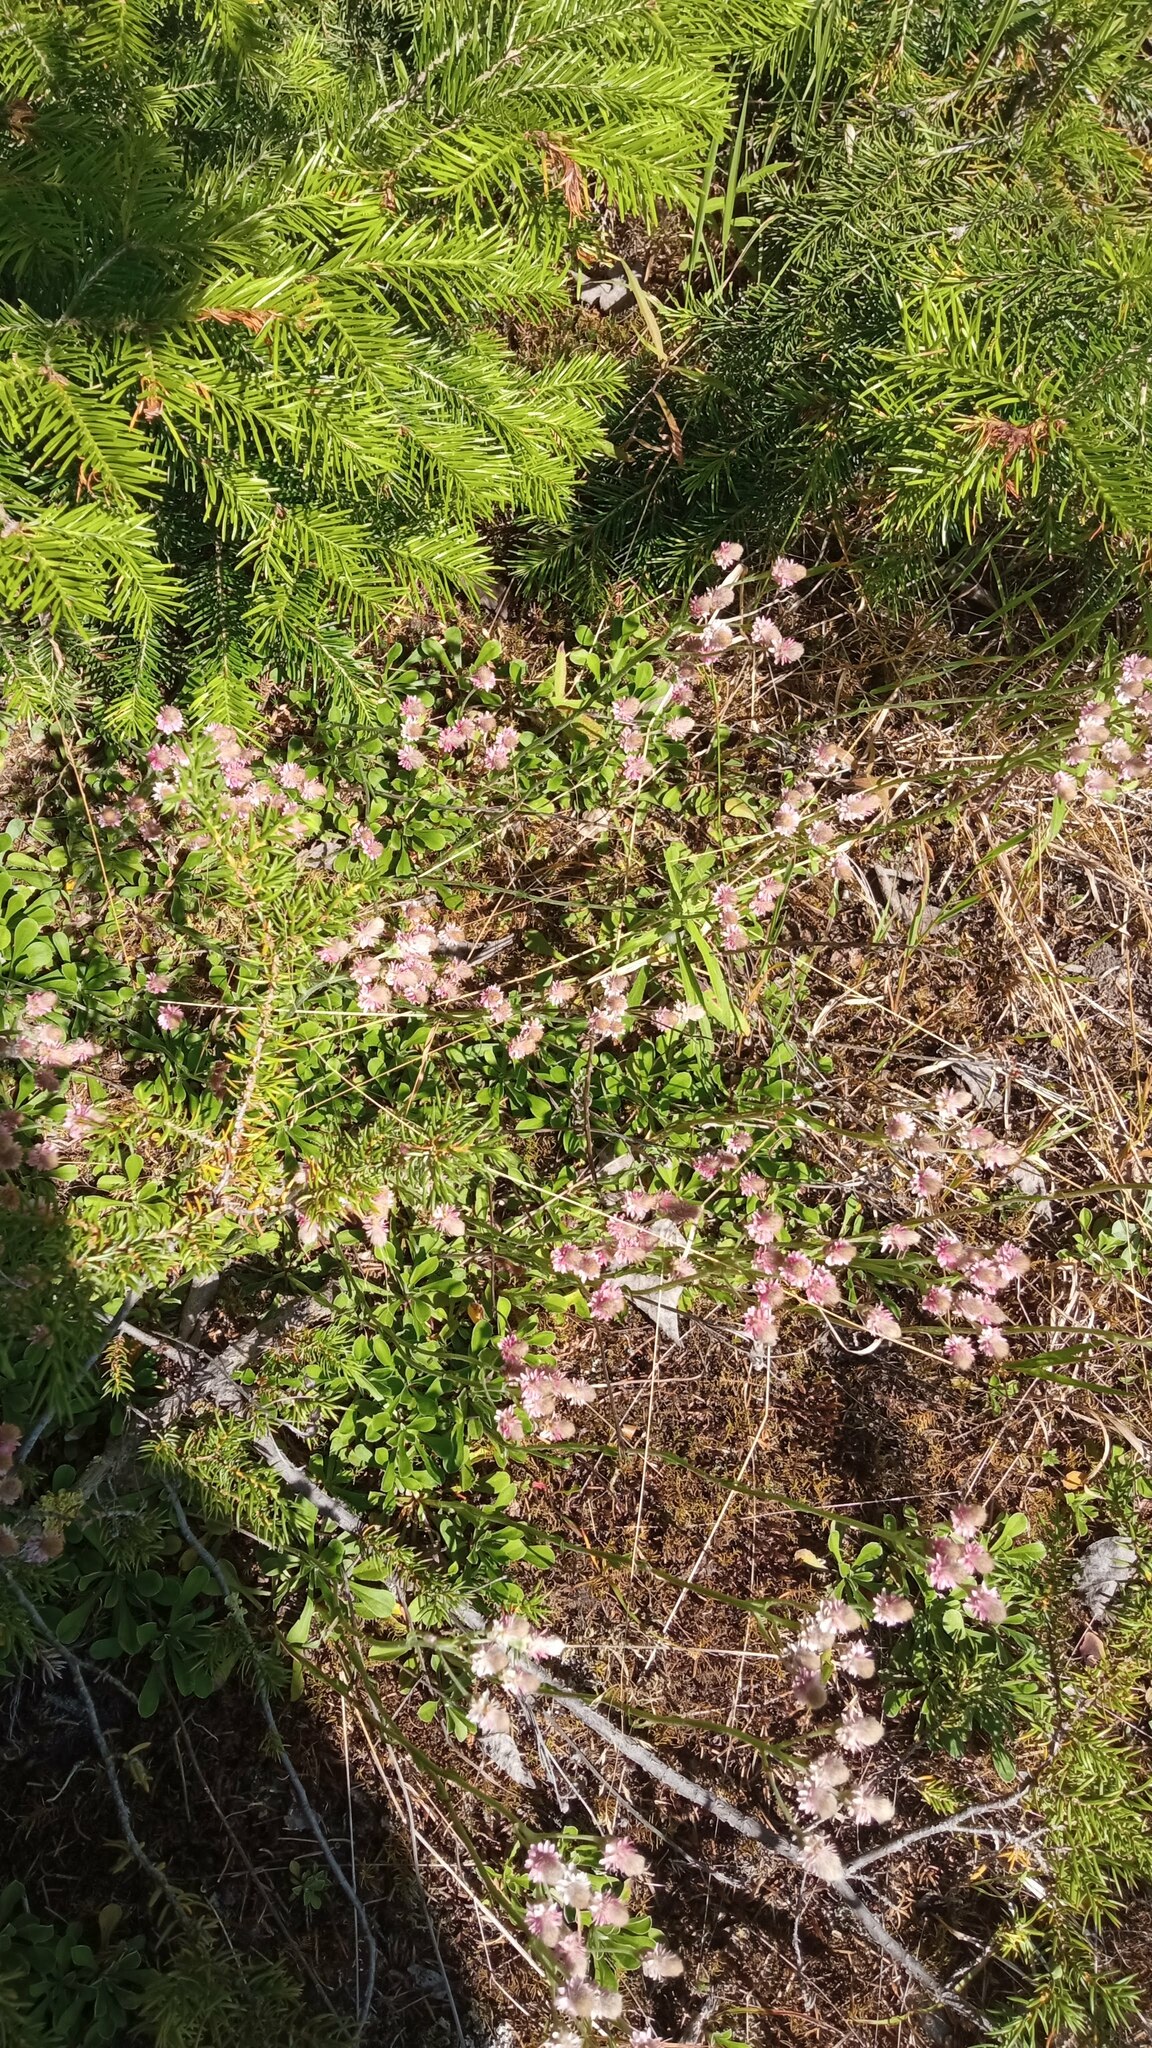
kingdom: Plantae
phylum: Tracheophyta
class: Magnoliopsida
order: Asterales
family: Asteraceae
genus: Antennaria
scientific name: Antennaria dioica
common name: Mountain everlasting
